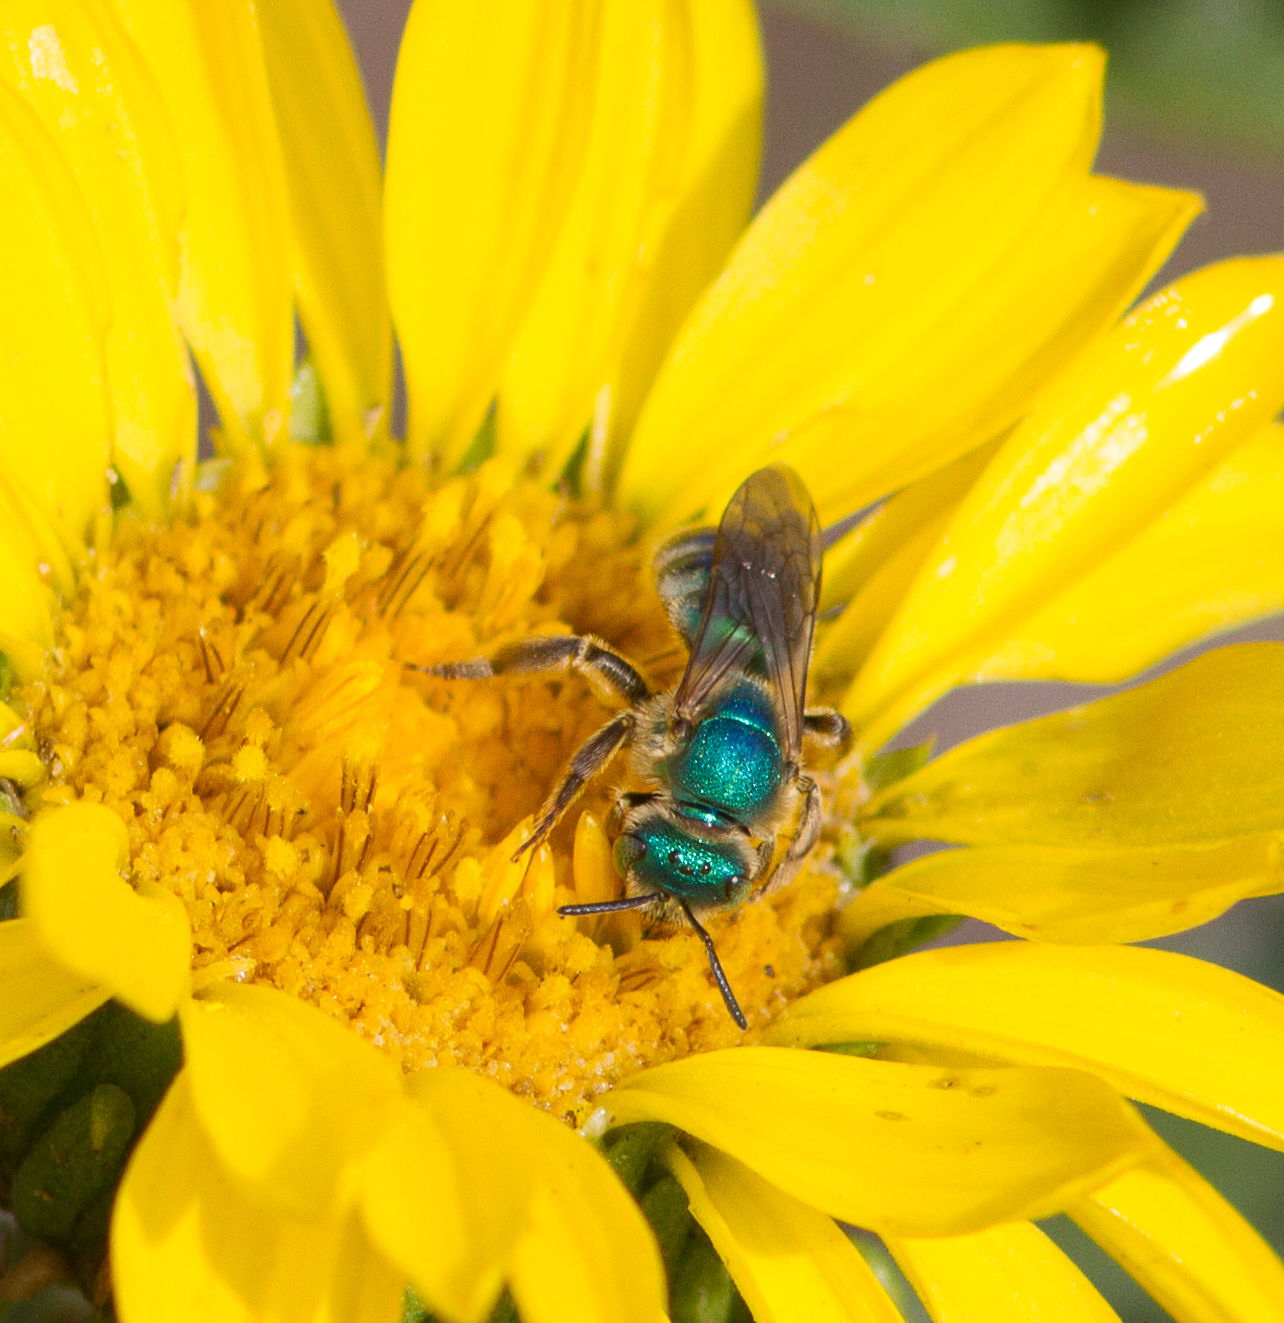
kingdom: Animalia
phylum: Arthropoda
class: Insecta
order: Hymenoptera
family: Halictidae
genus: Agapostemon
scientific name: Agapostemon texanus
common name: Texas striped sweat bee
